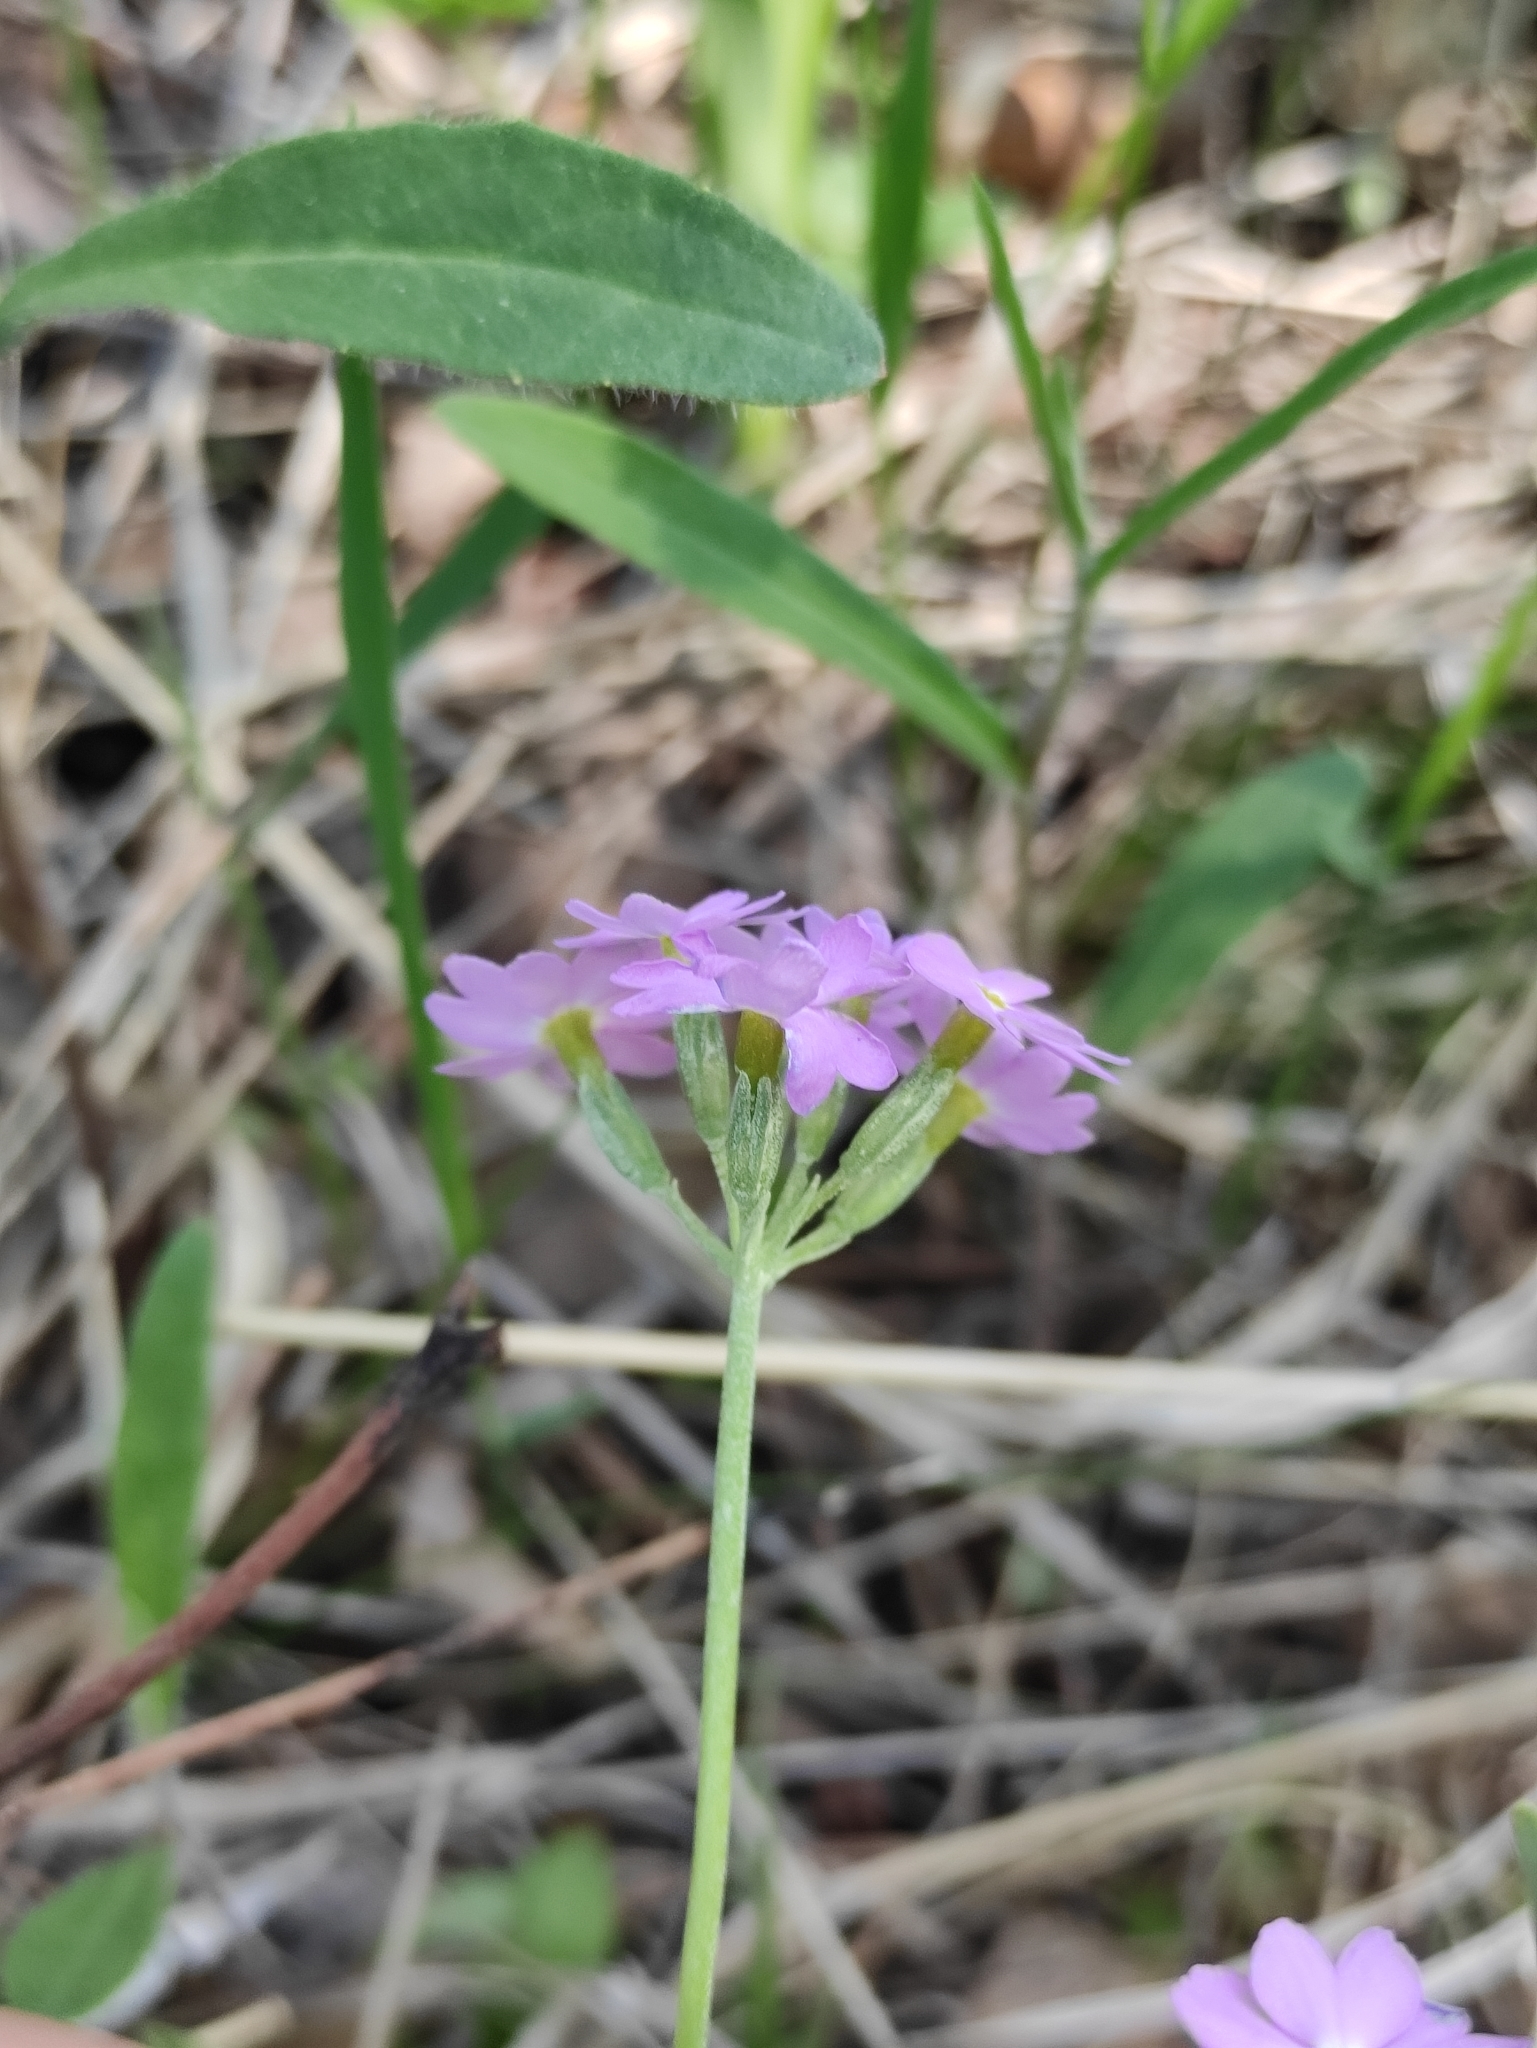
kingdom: Plantae
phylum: Tracheophyta
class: Magnoliopsida
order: Ericales
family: Primulaceae
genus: Primula
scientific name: Primula farinosa
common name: Bird's-eye primrose
